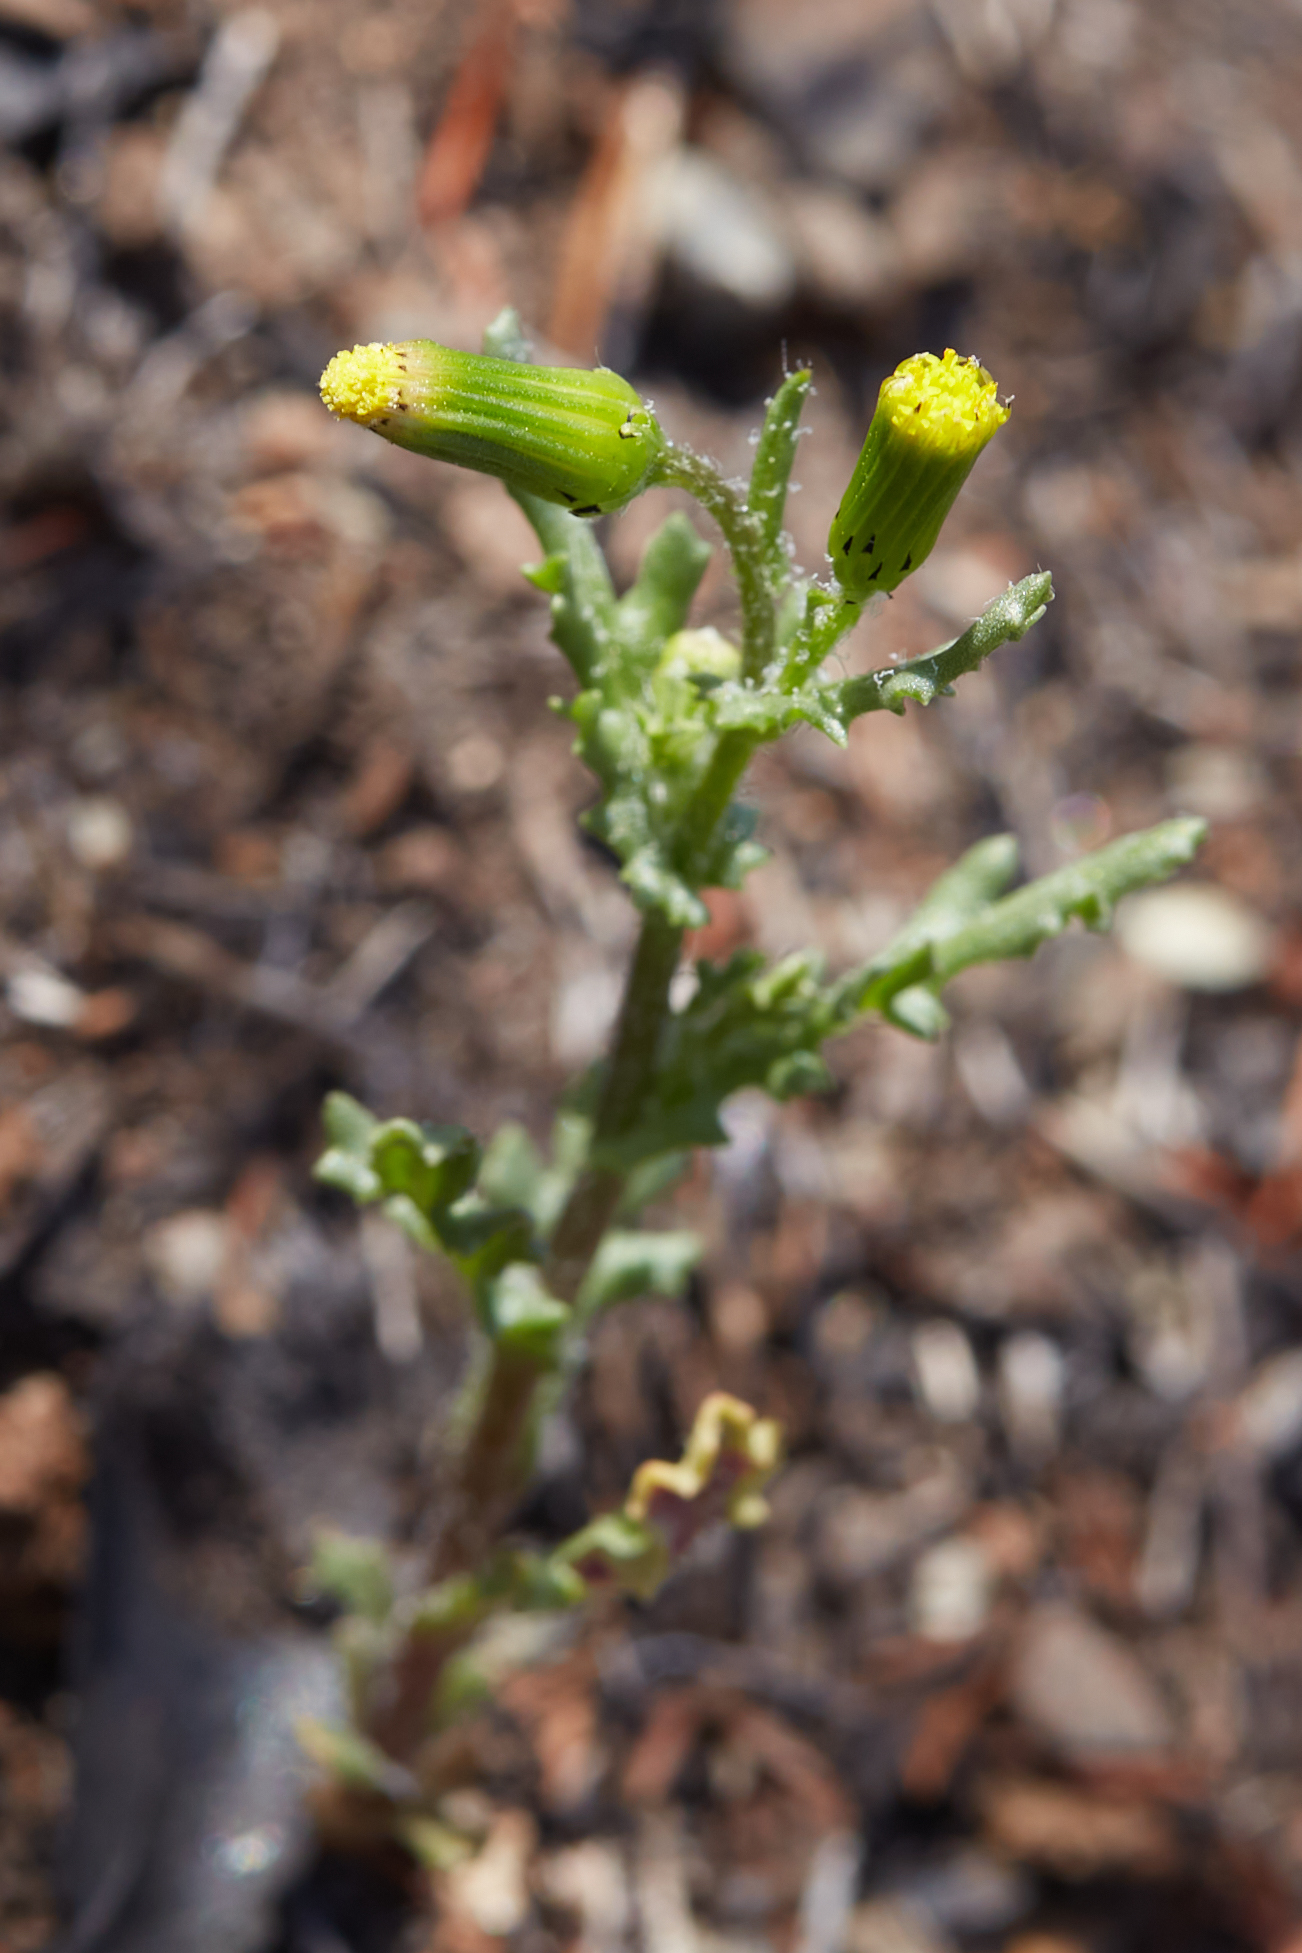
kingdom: Plantae
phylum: Tracheophyta
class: Magnoliopsida
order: Asterales
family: Asteraceae
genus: Senecio
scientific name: Senecio vulgaris
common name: Old-man-in-the-spring
